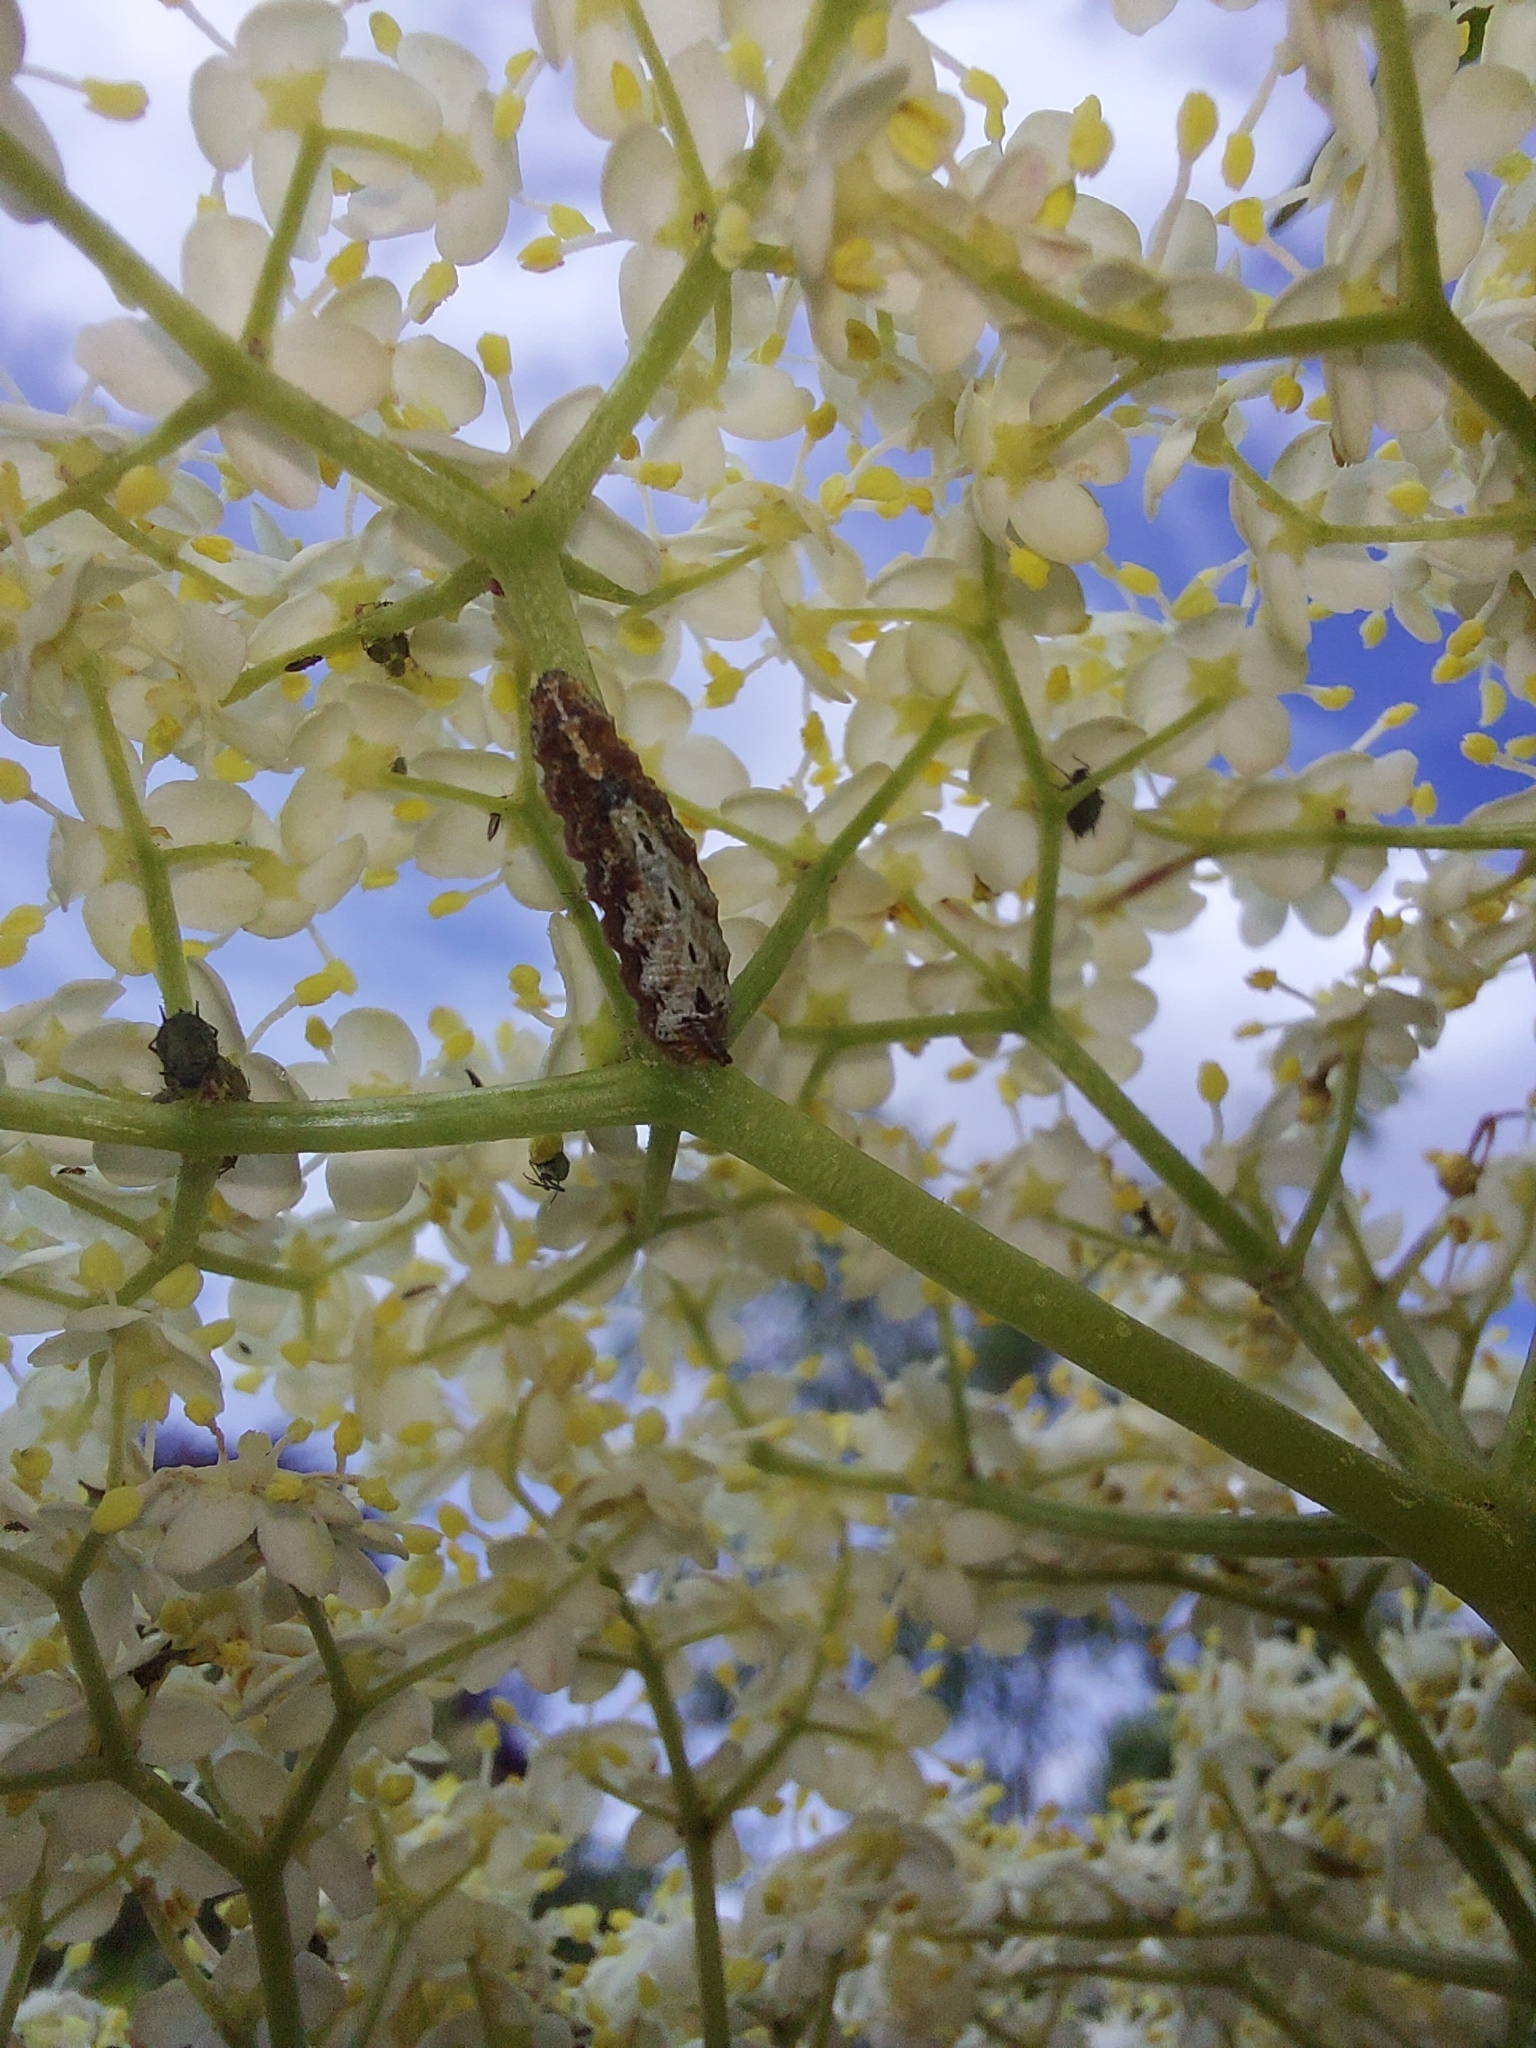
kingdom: Animalia
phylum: Arthropoda
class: Insecta
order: Diptera
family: Syrphidae
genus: Meligramma
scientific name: Meligramma triangulifera
